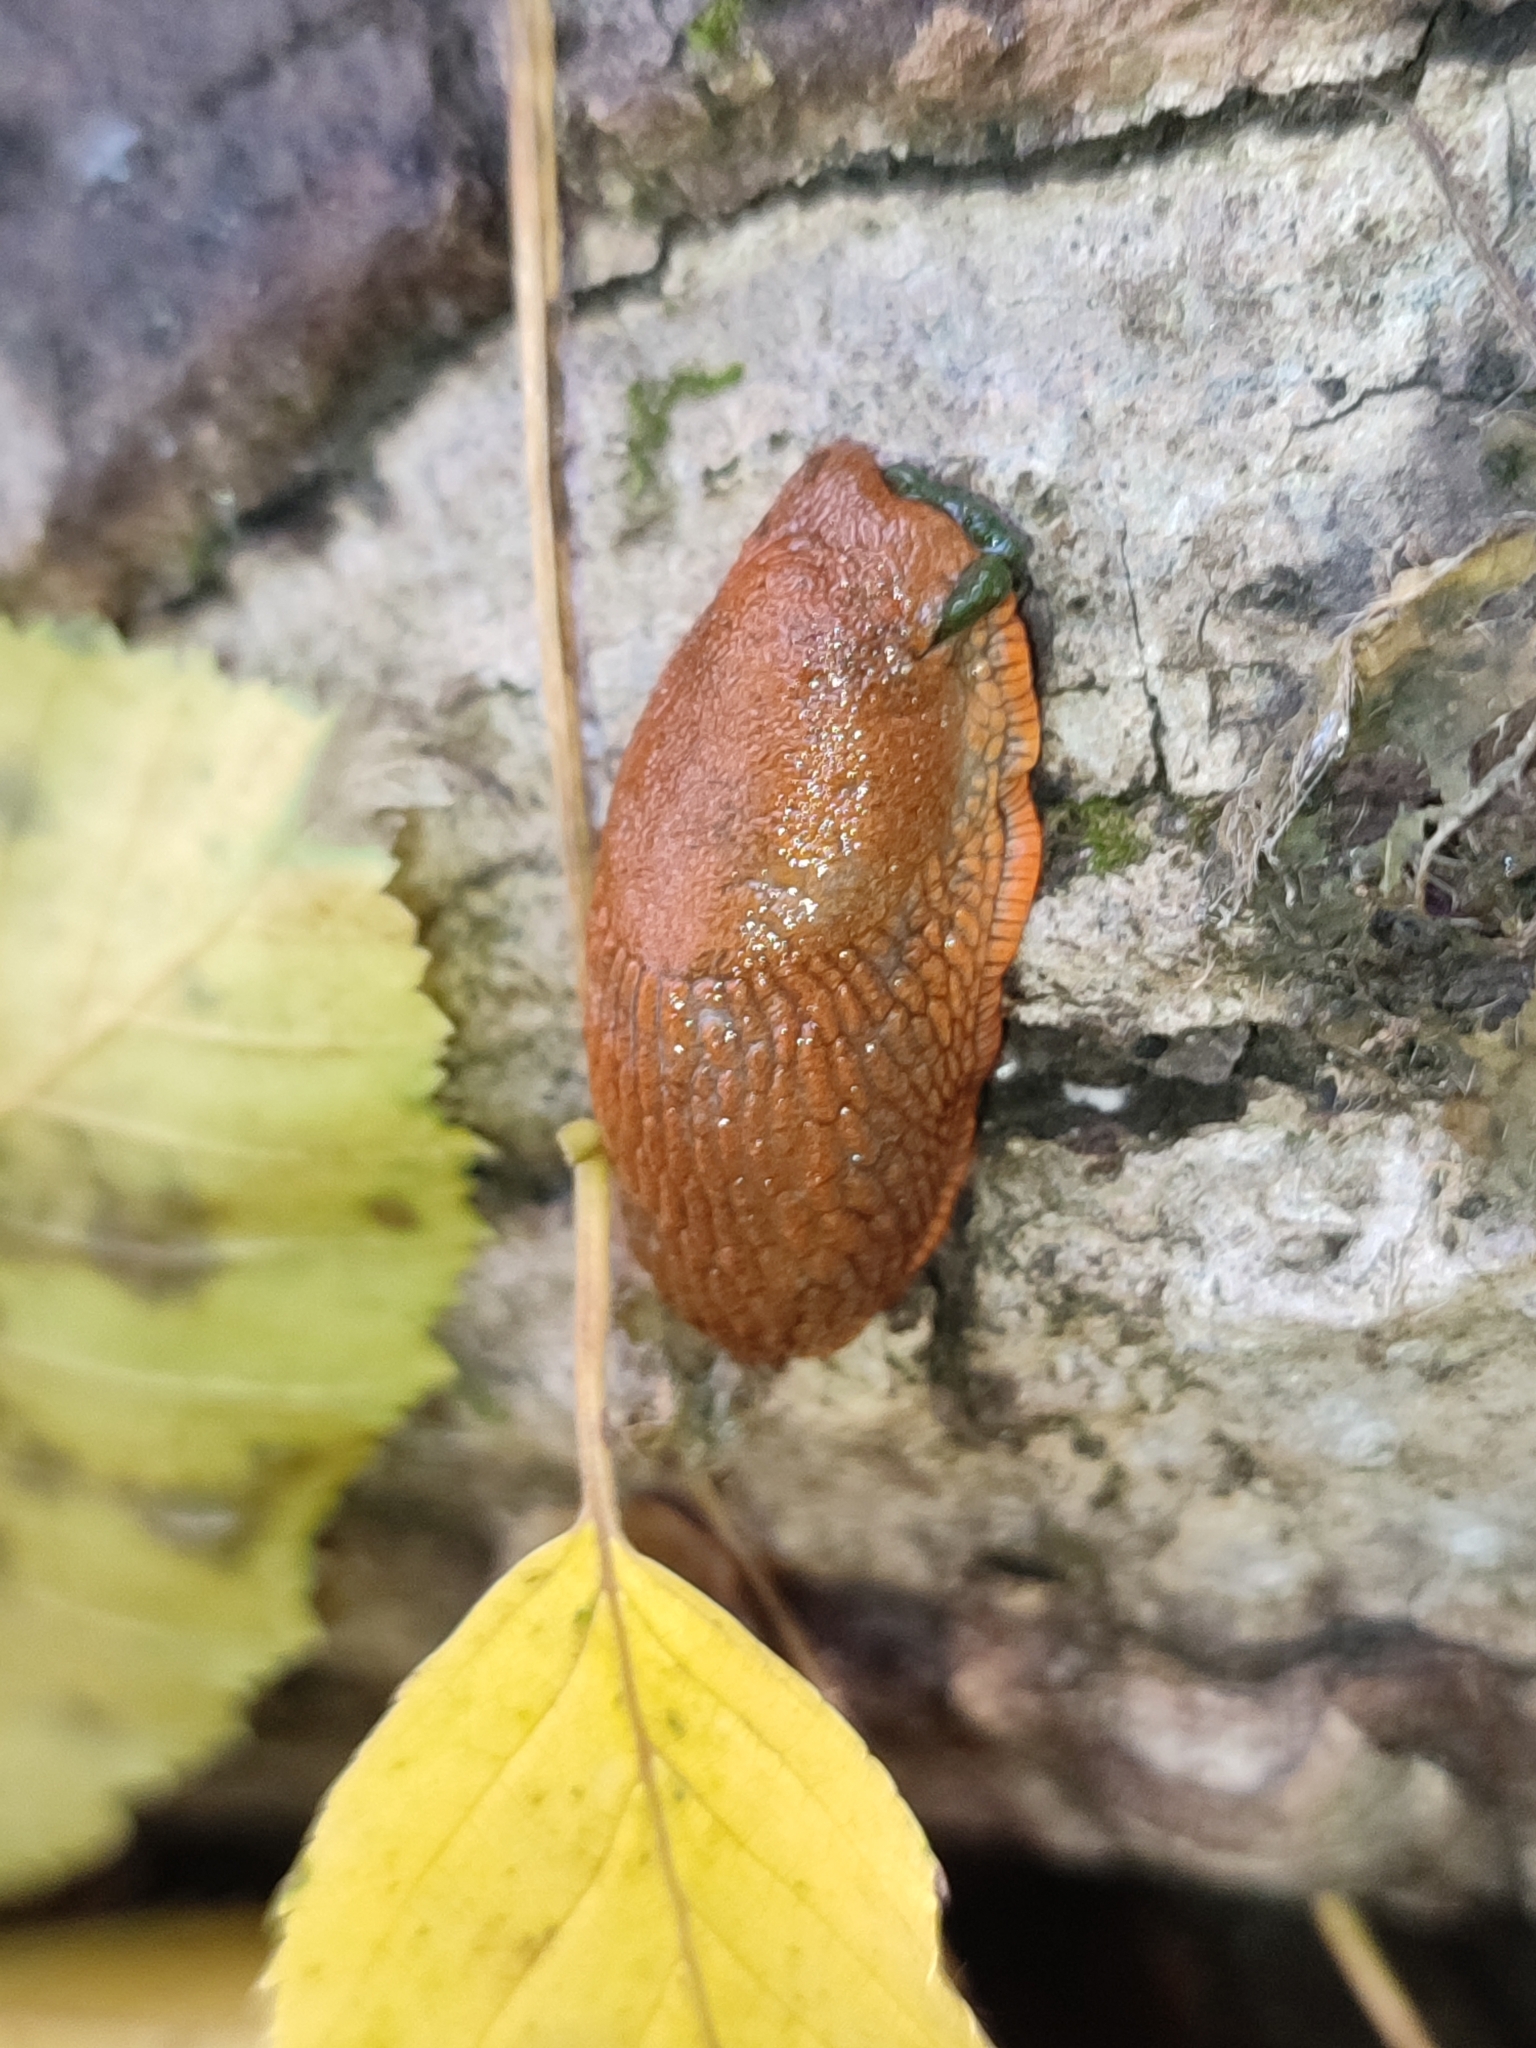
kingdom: Animalia
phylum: Mollusca
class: Gastropoda
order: Stylommatophora
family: Arionidae
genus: Arion
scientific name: Arion vulgaris
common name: Lusitanian slug
